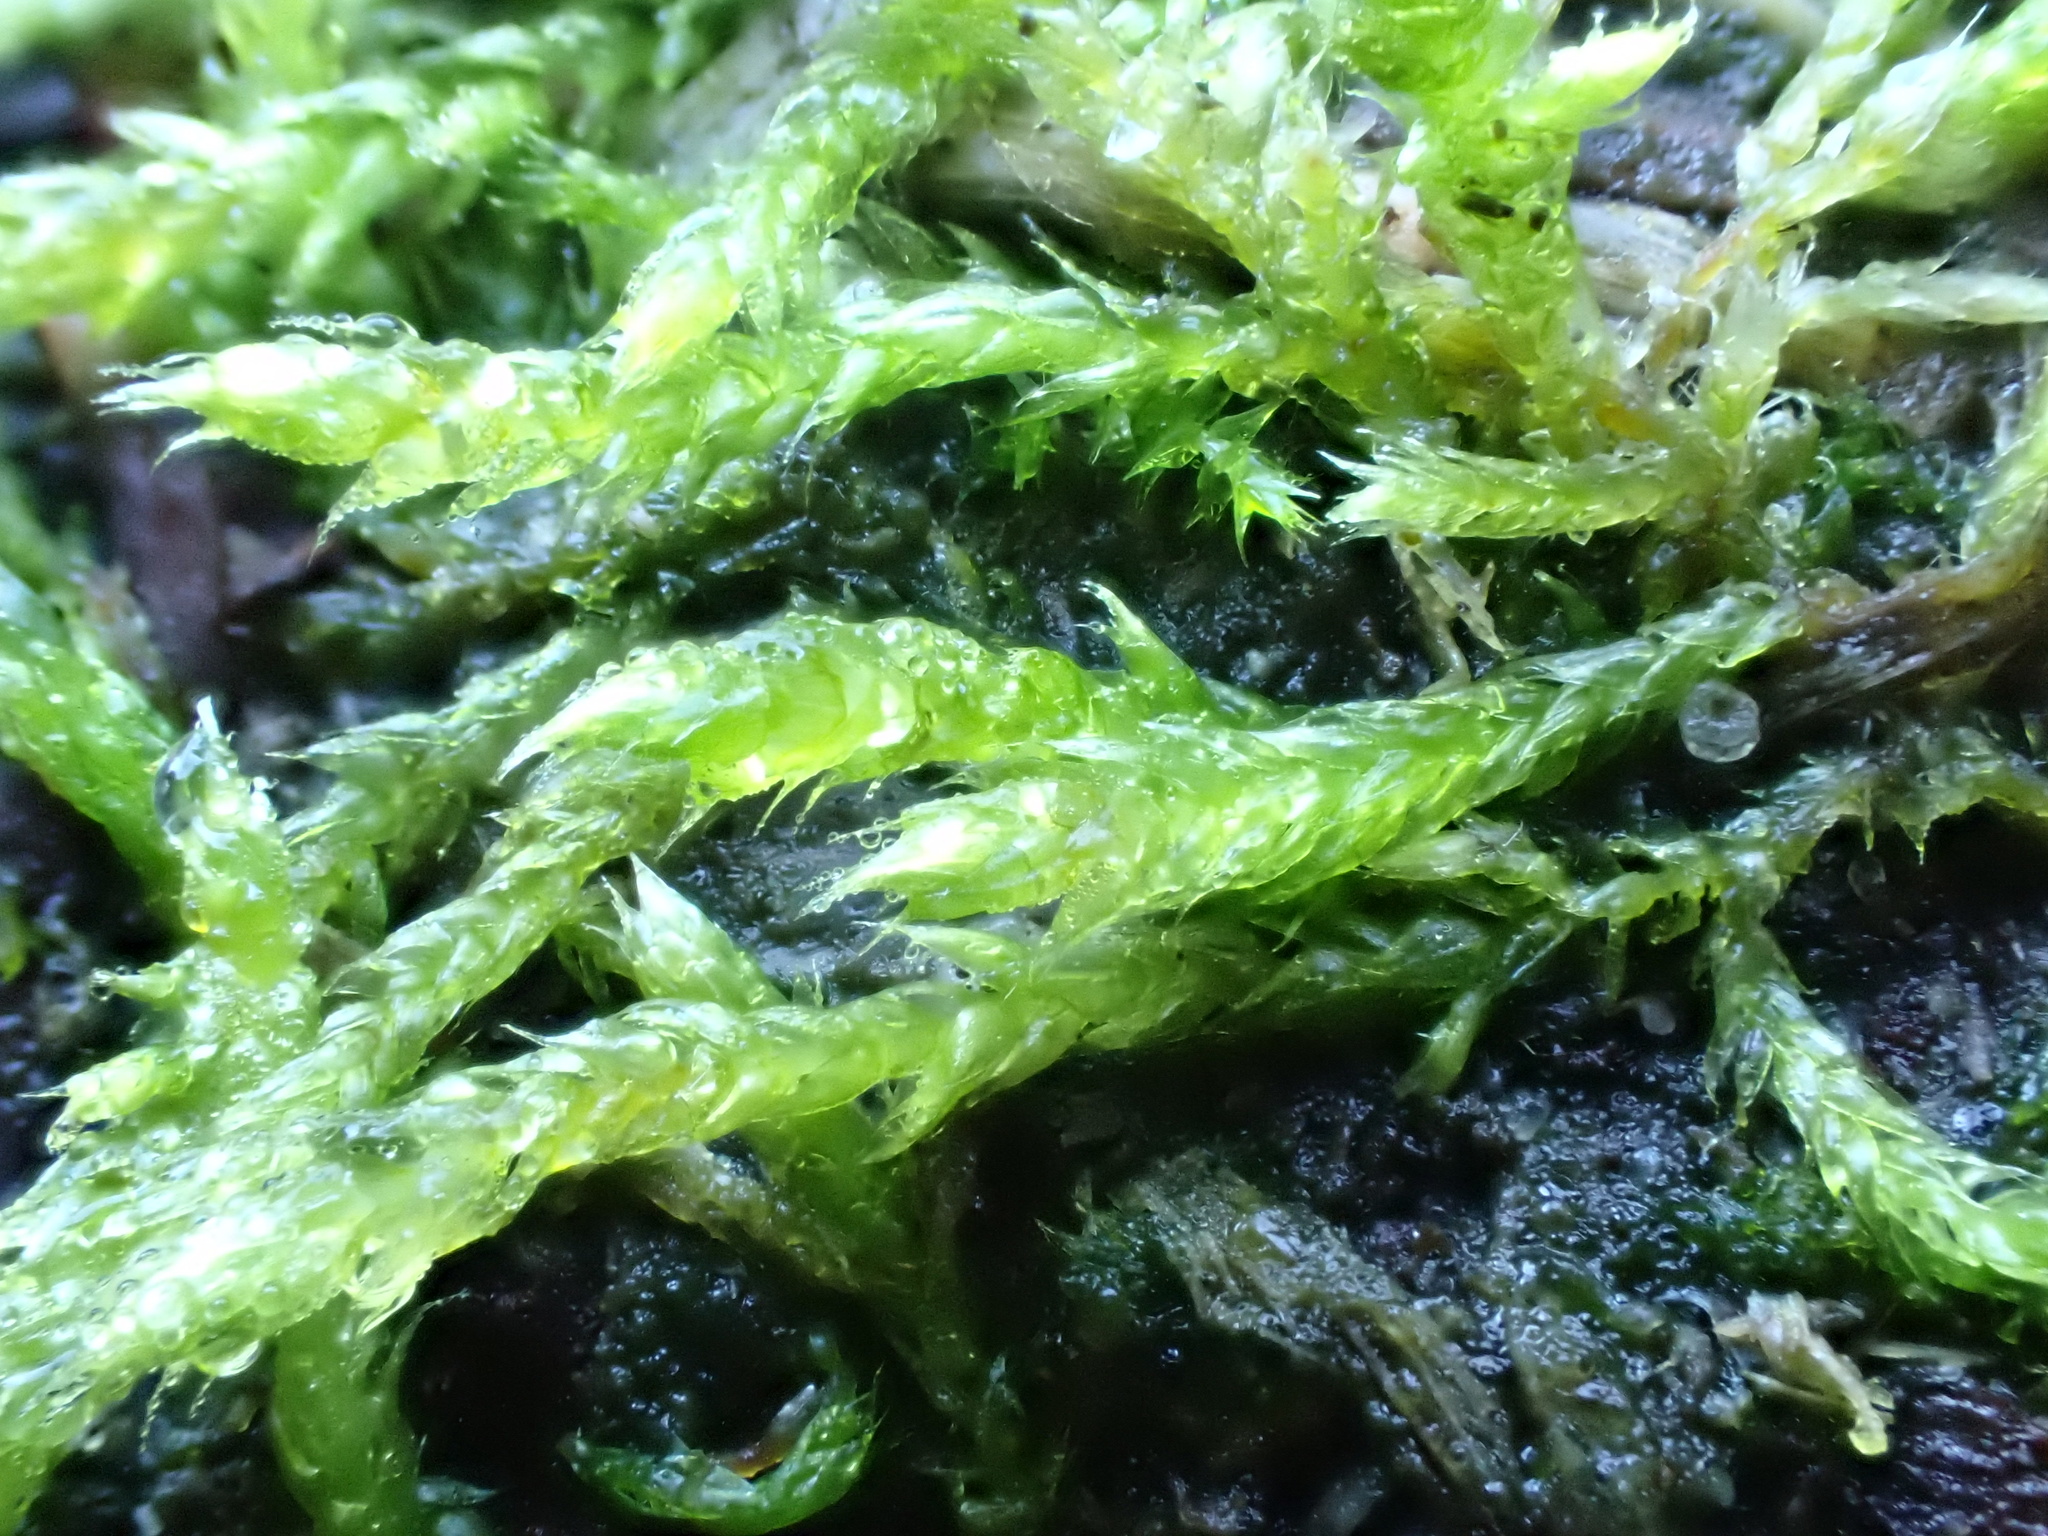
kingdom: Plantae
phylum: Bryophyta
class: Bryopsida
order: Hypnales
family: Brachytheciaceae
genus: Brachythecium
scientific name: Brachythecium albicans
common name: Whitish ragged moss
